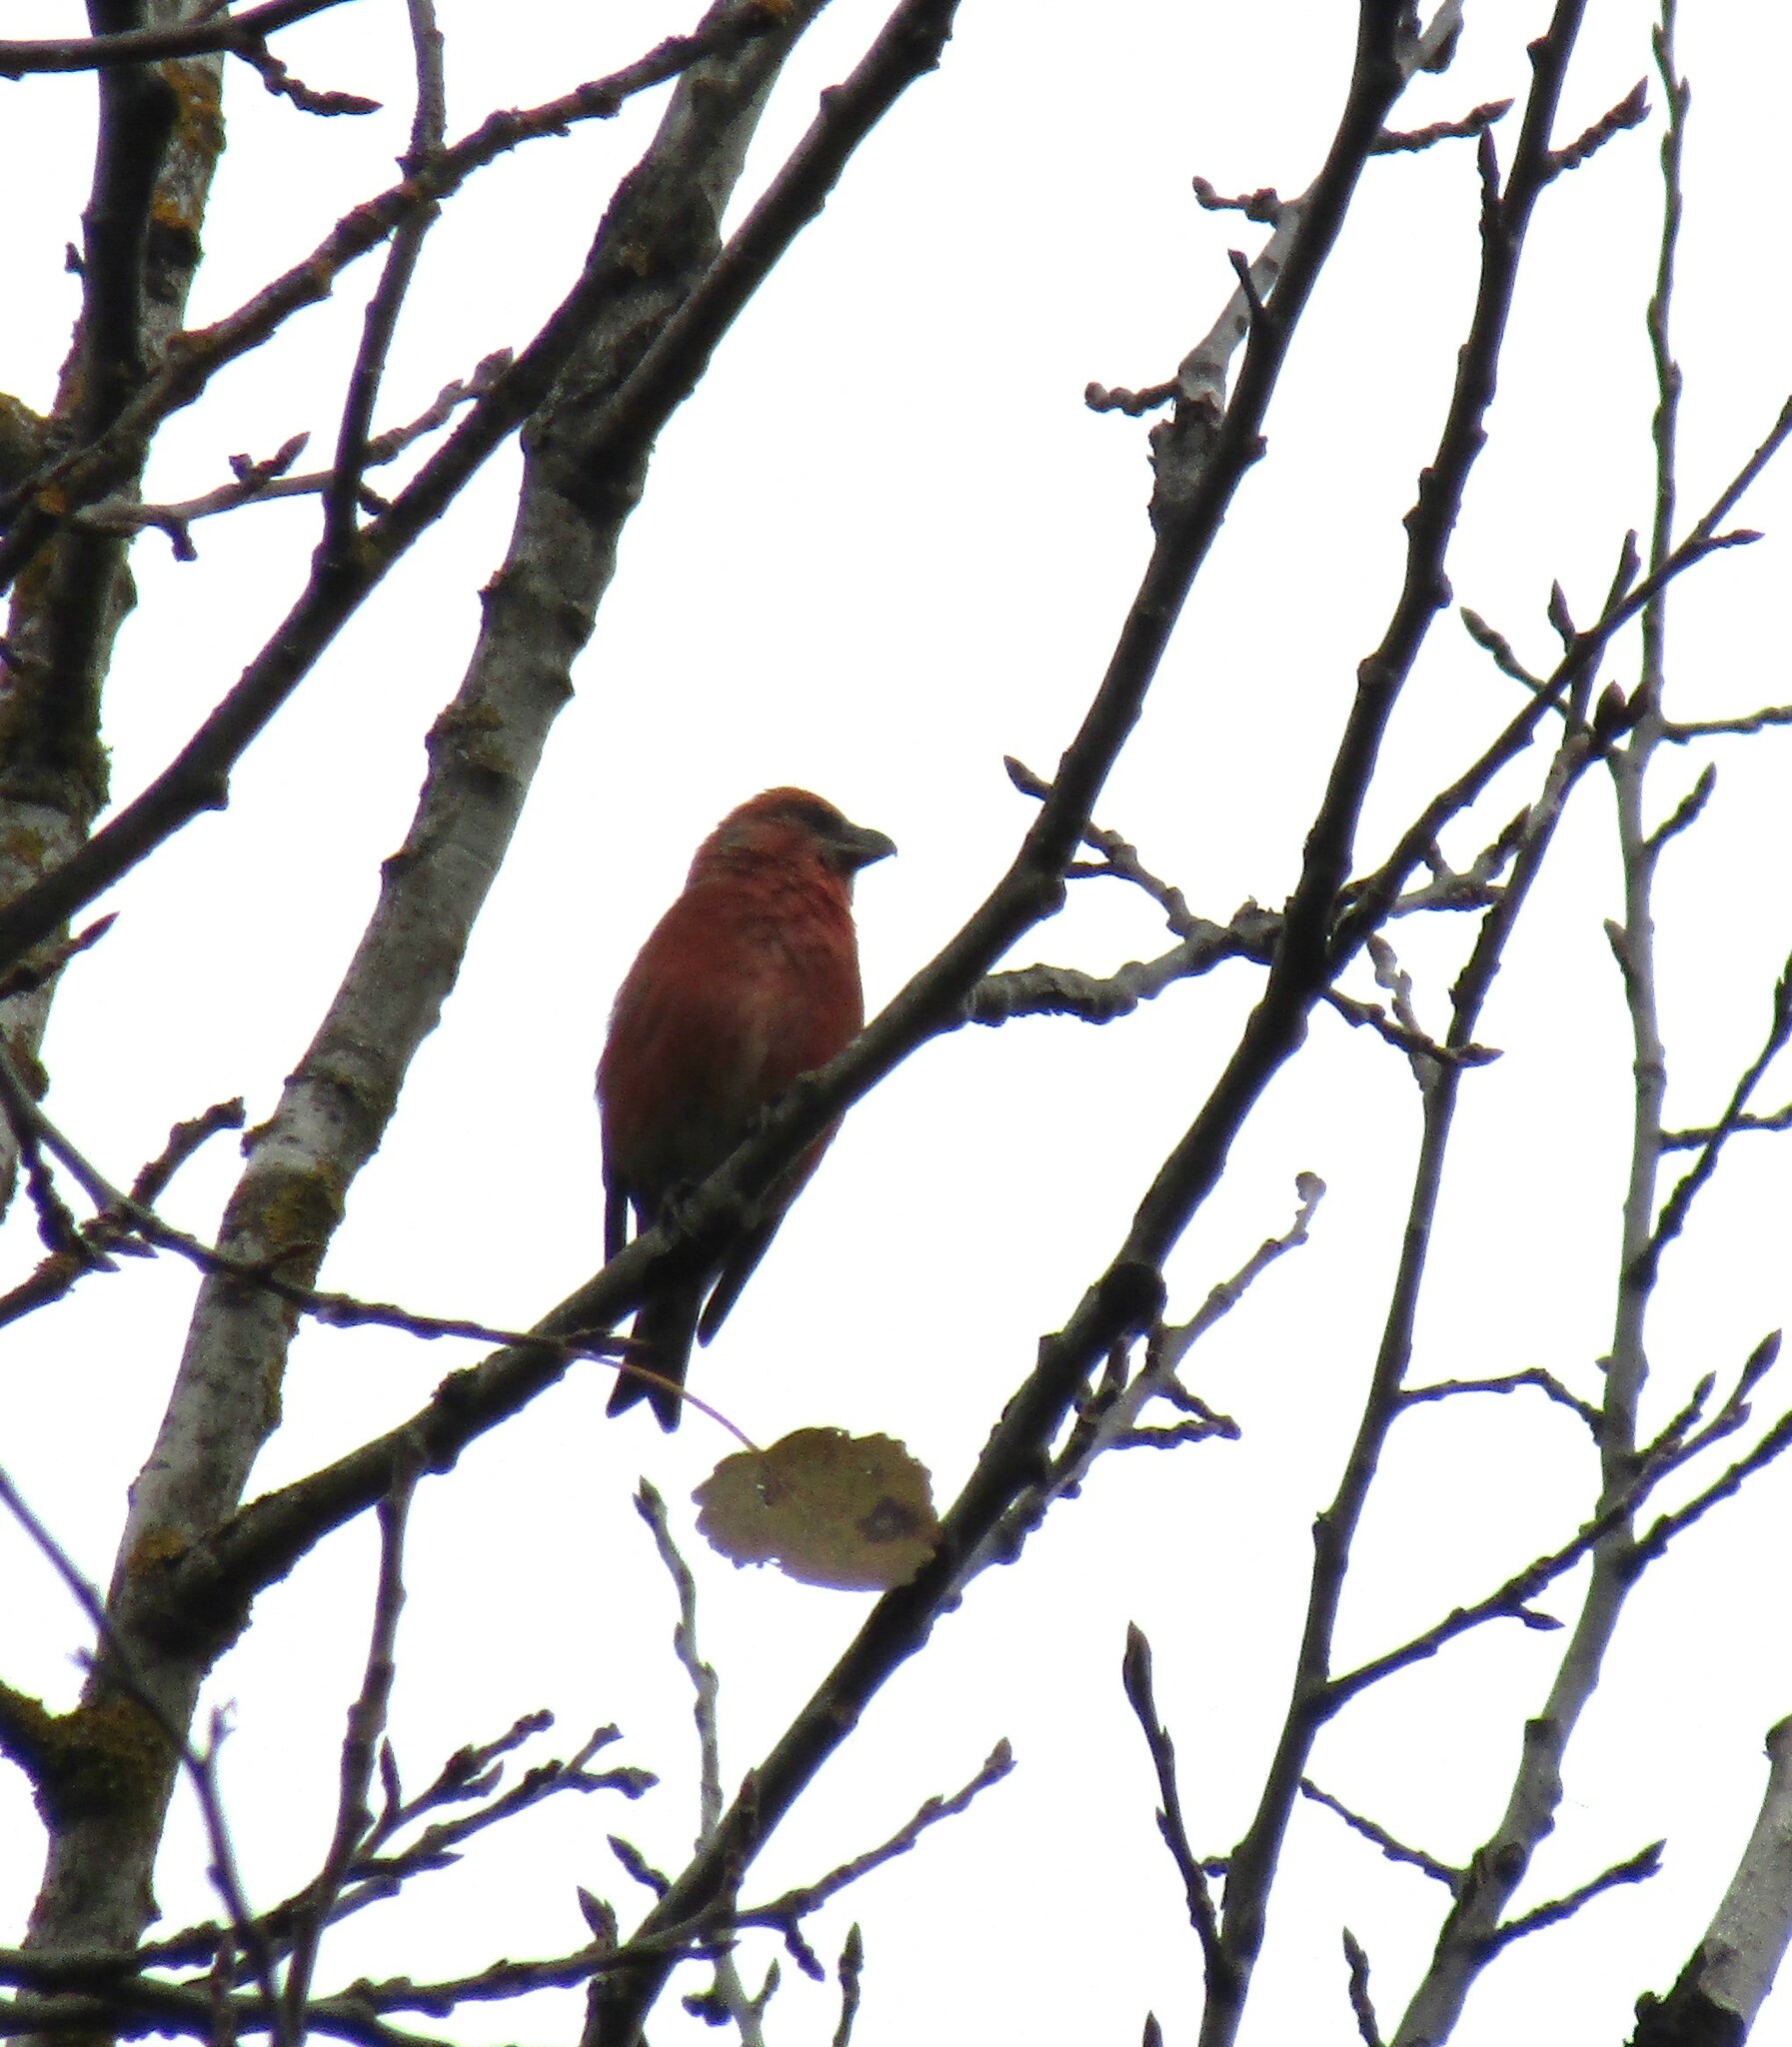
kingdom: Animalia
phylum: Chordata
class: Aves
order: Passeriformes
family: Fringillidae
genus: Loxia
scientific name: Loxia curvirostra
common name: Red crossbill
